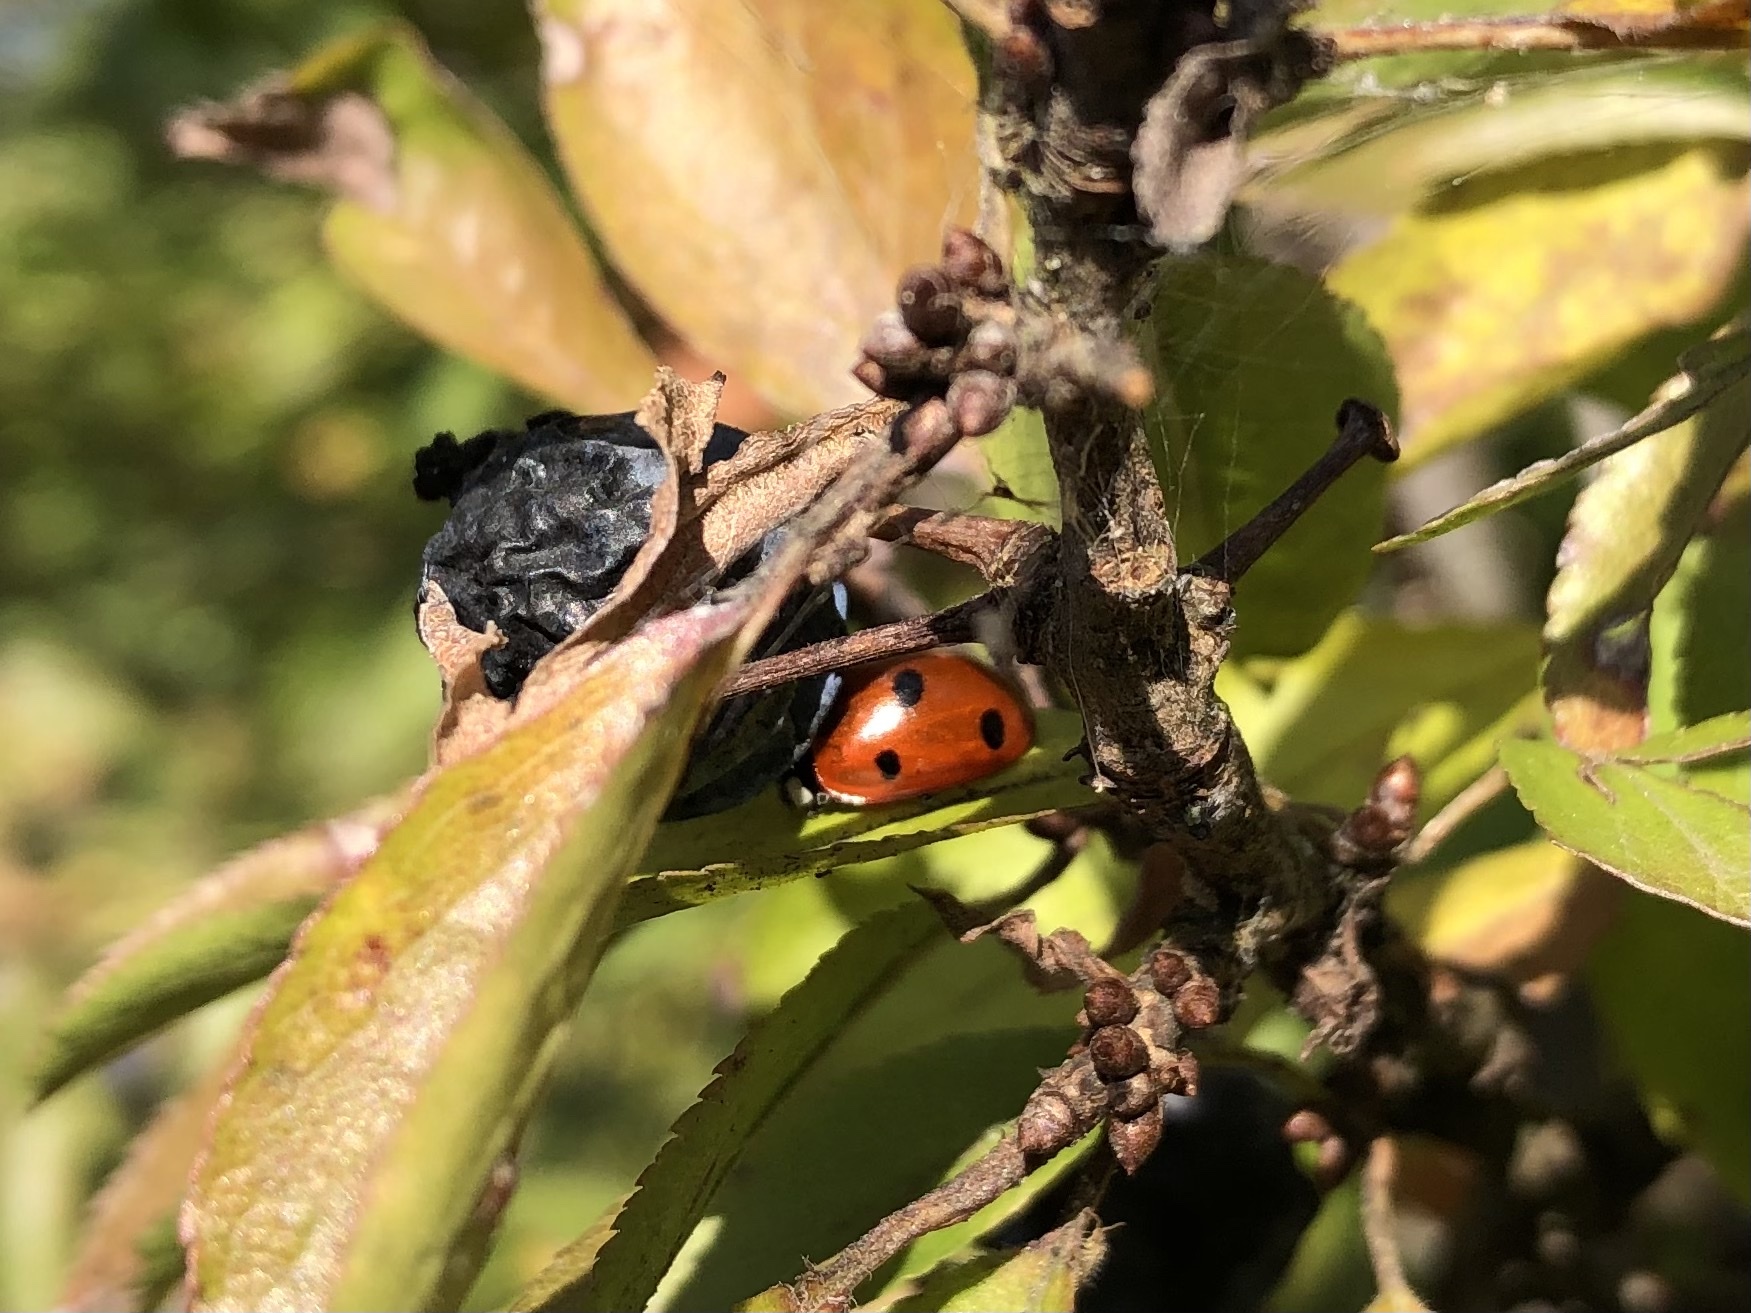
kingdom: Animalia
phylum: Arthropoda
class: Insecta
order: Coleoptera
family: Coccinellidae
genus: Coccinella
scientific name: Coccinella septempunctata
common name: Sevenspotted lady beetle
